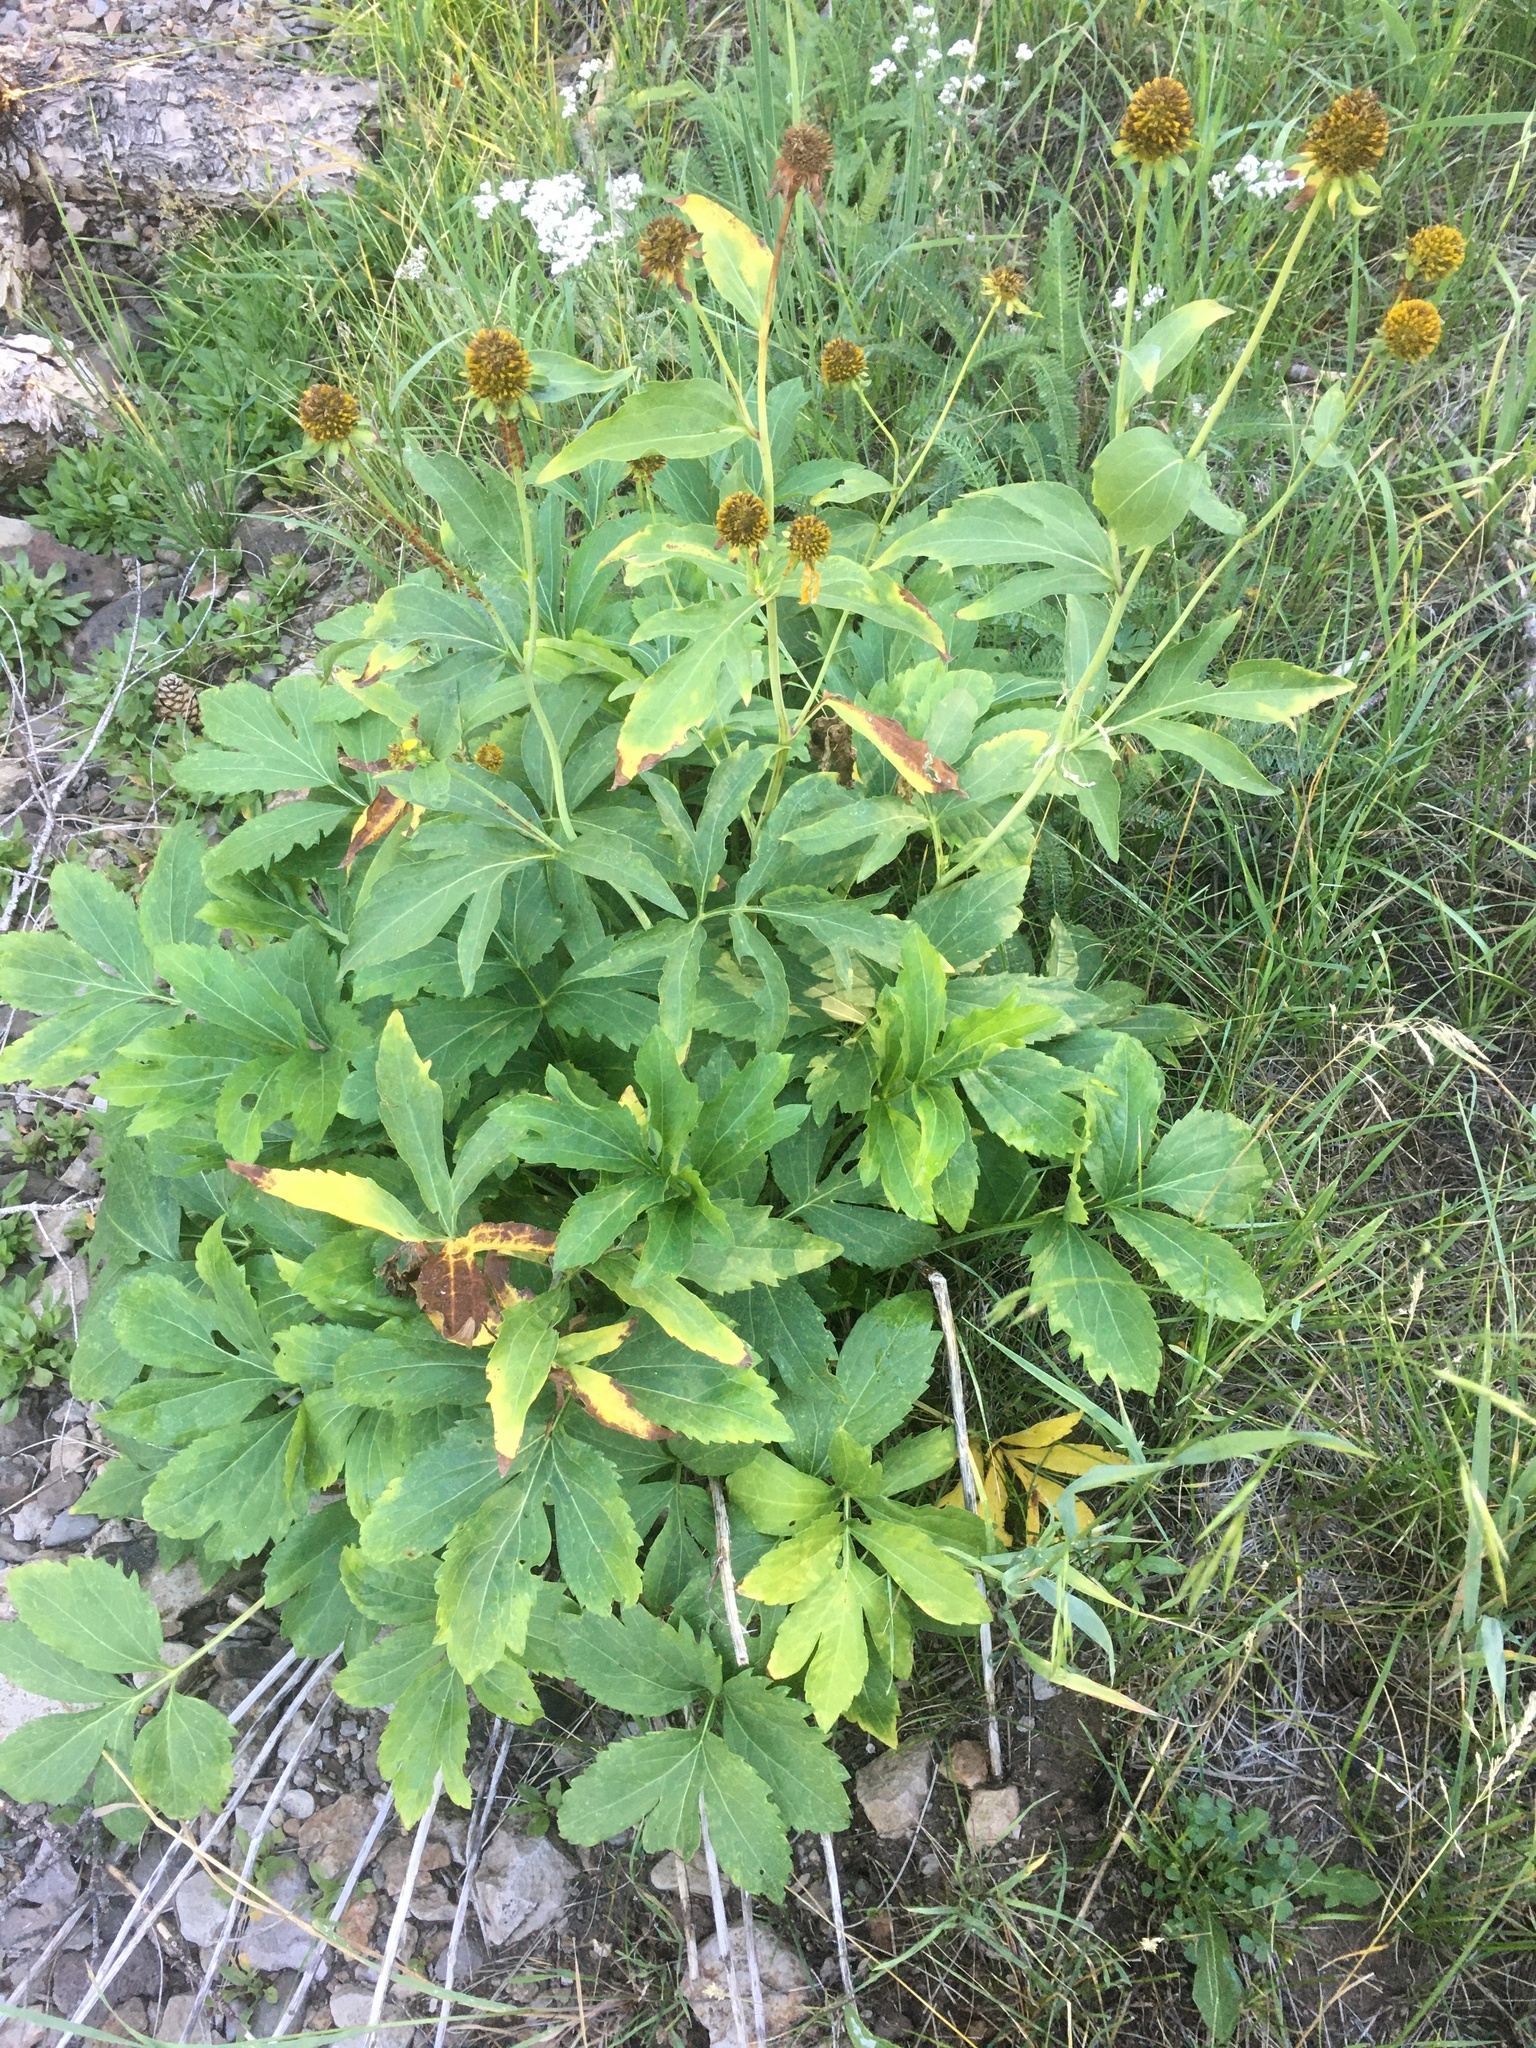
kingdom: Plantae
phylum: Tracheophyta
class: Magnoliopsida
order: Asterales
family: Asteraceae
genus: Rudbeckia
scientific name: Rudbeckia laciniata
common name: Coneflower
